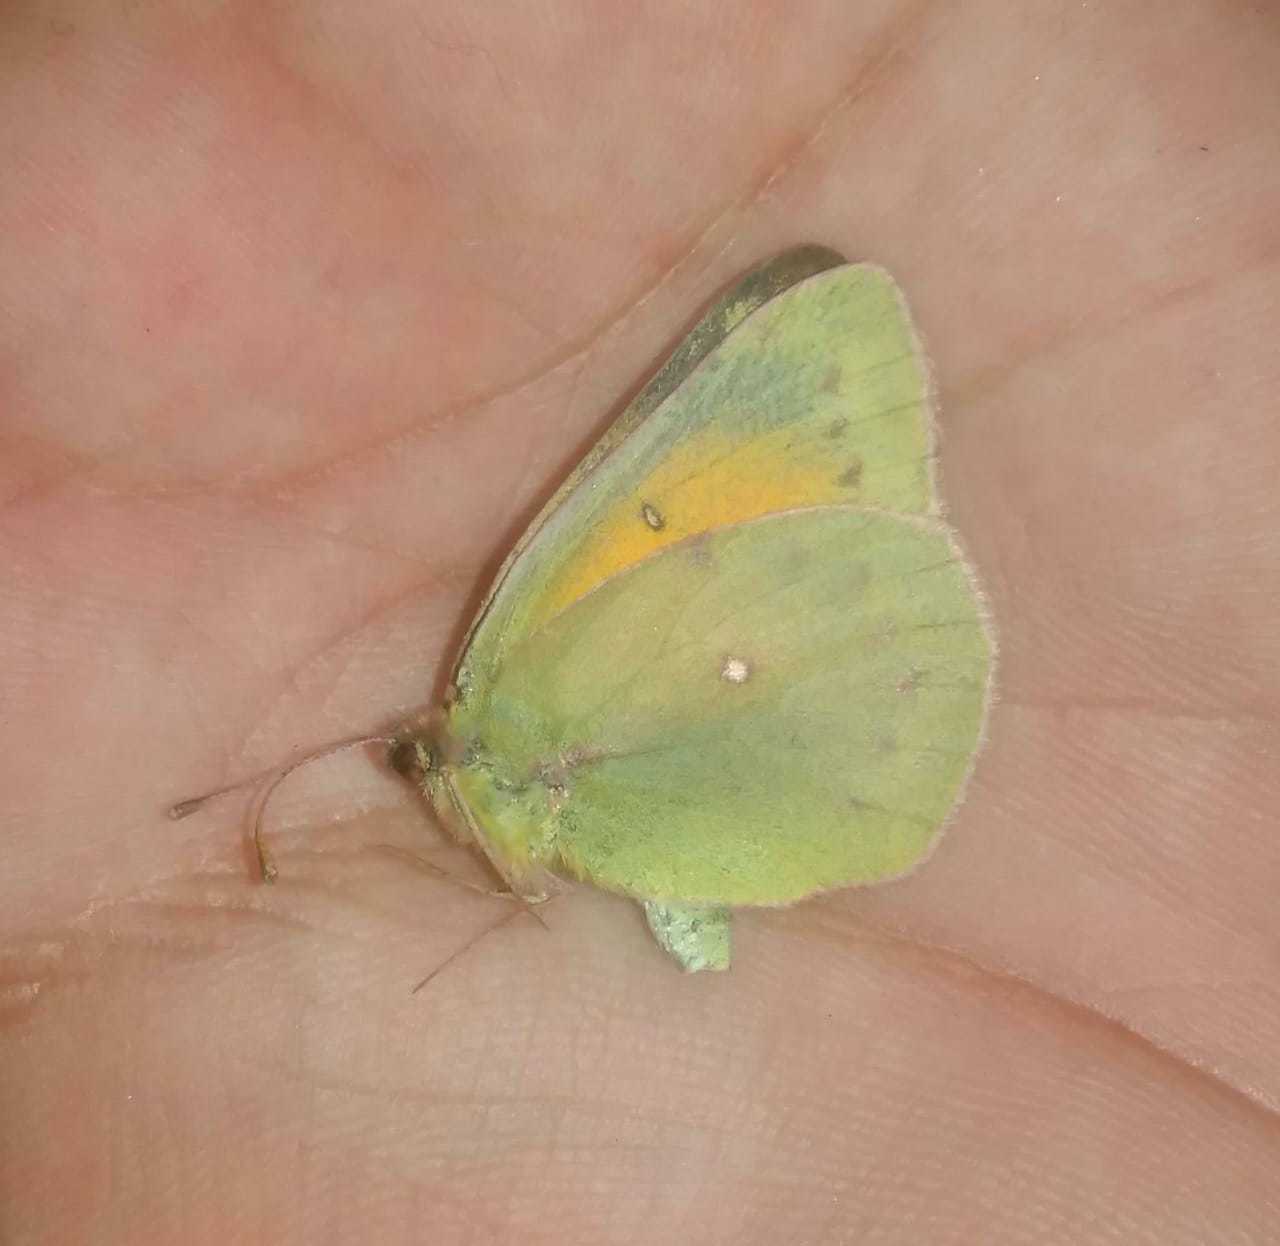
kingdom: Animalia
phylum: Arthropoda
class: Insecta
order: Lepidoptera
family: Pieridae
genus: Colias
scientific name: Colias lesbia
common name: Lesbia clouded yellow
